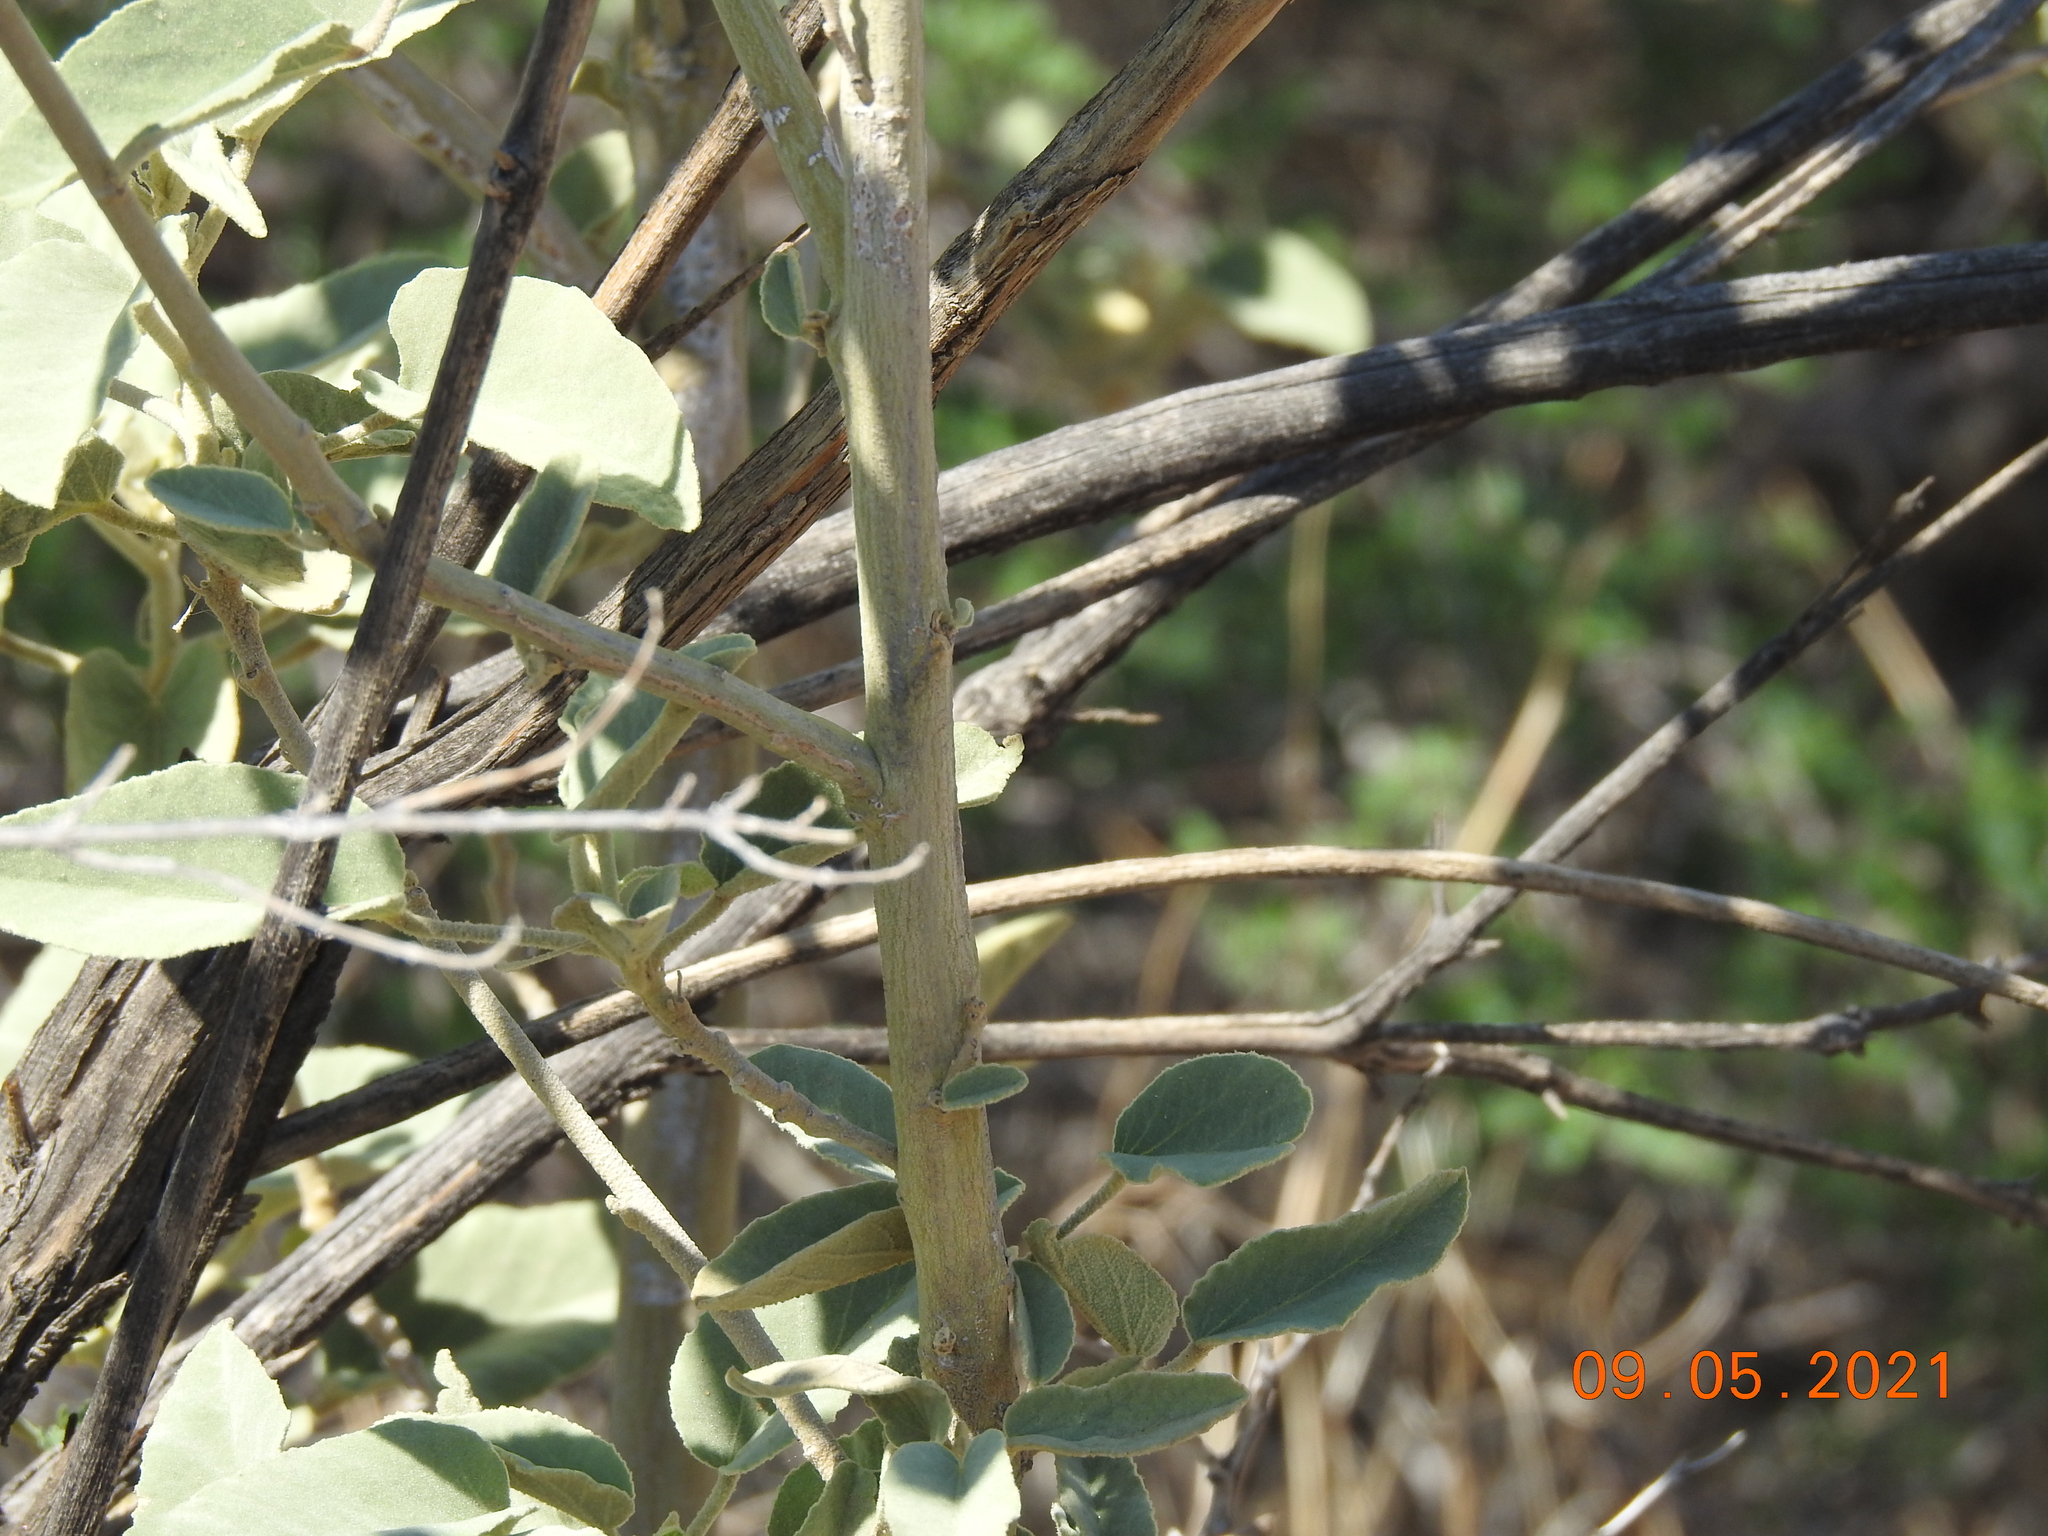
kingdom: Plantae
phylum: Tracheophyta
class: Magnoliopsida
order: Malvales
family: Malvaceae
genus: Horsfordia
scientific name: Horsfordia newberryi
